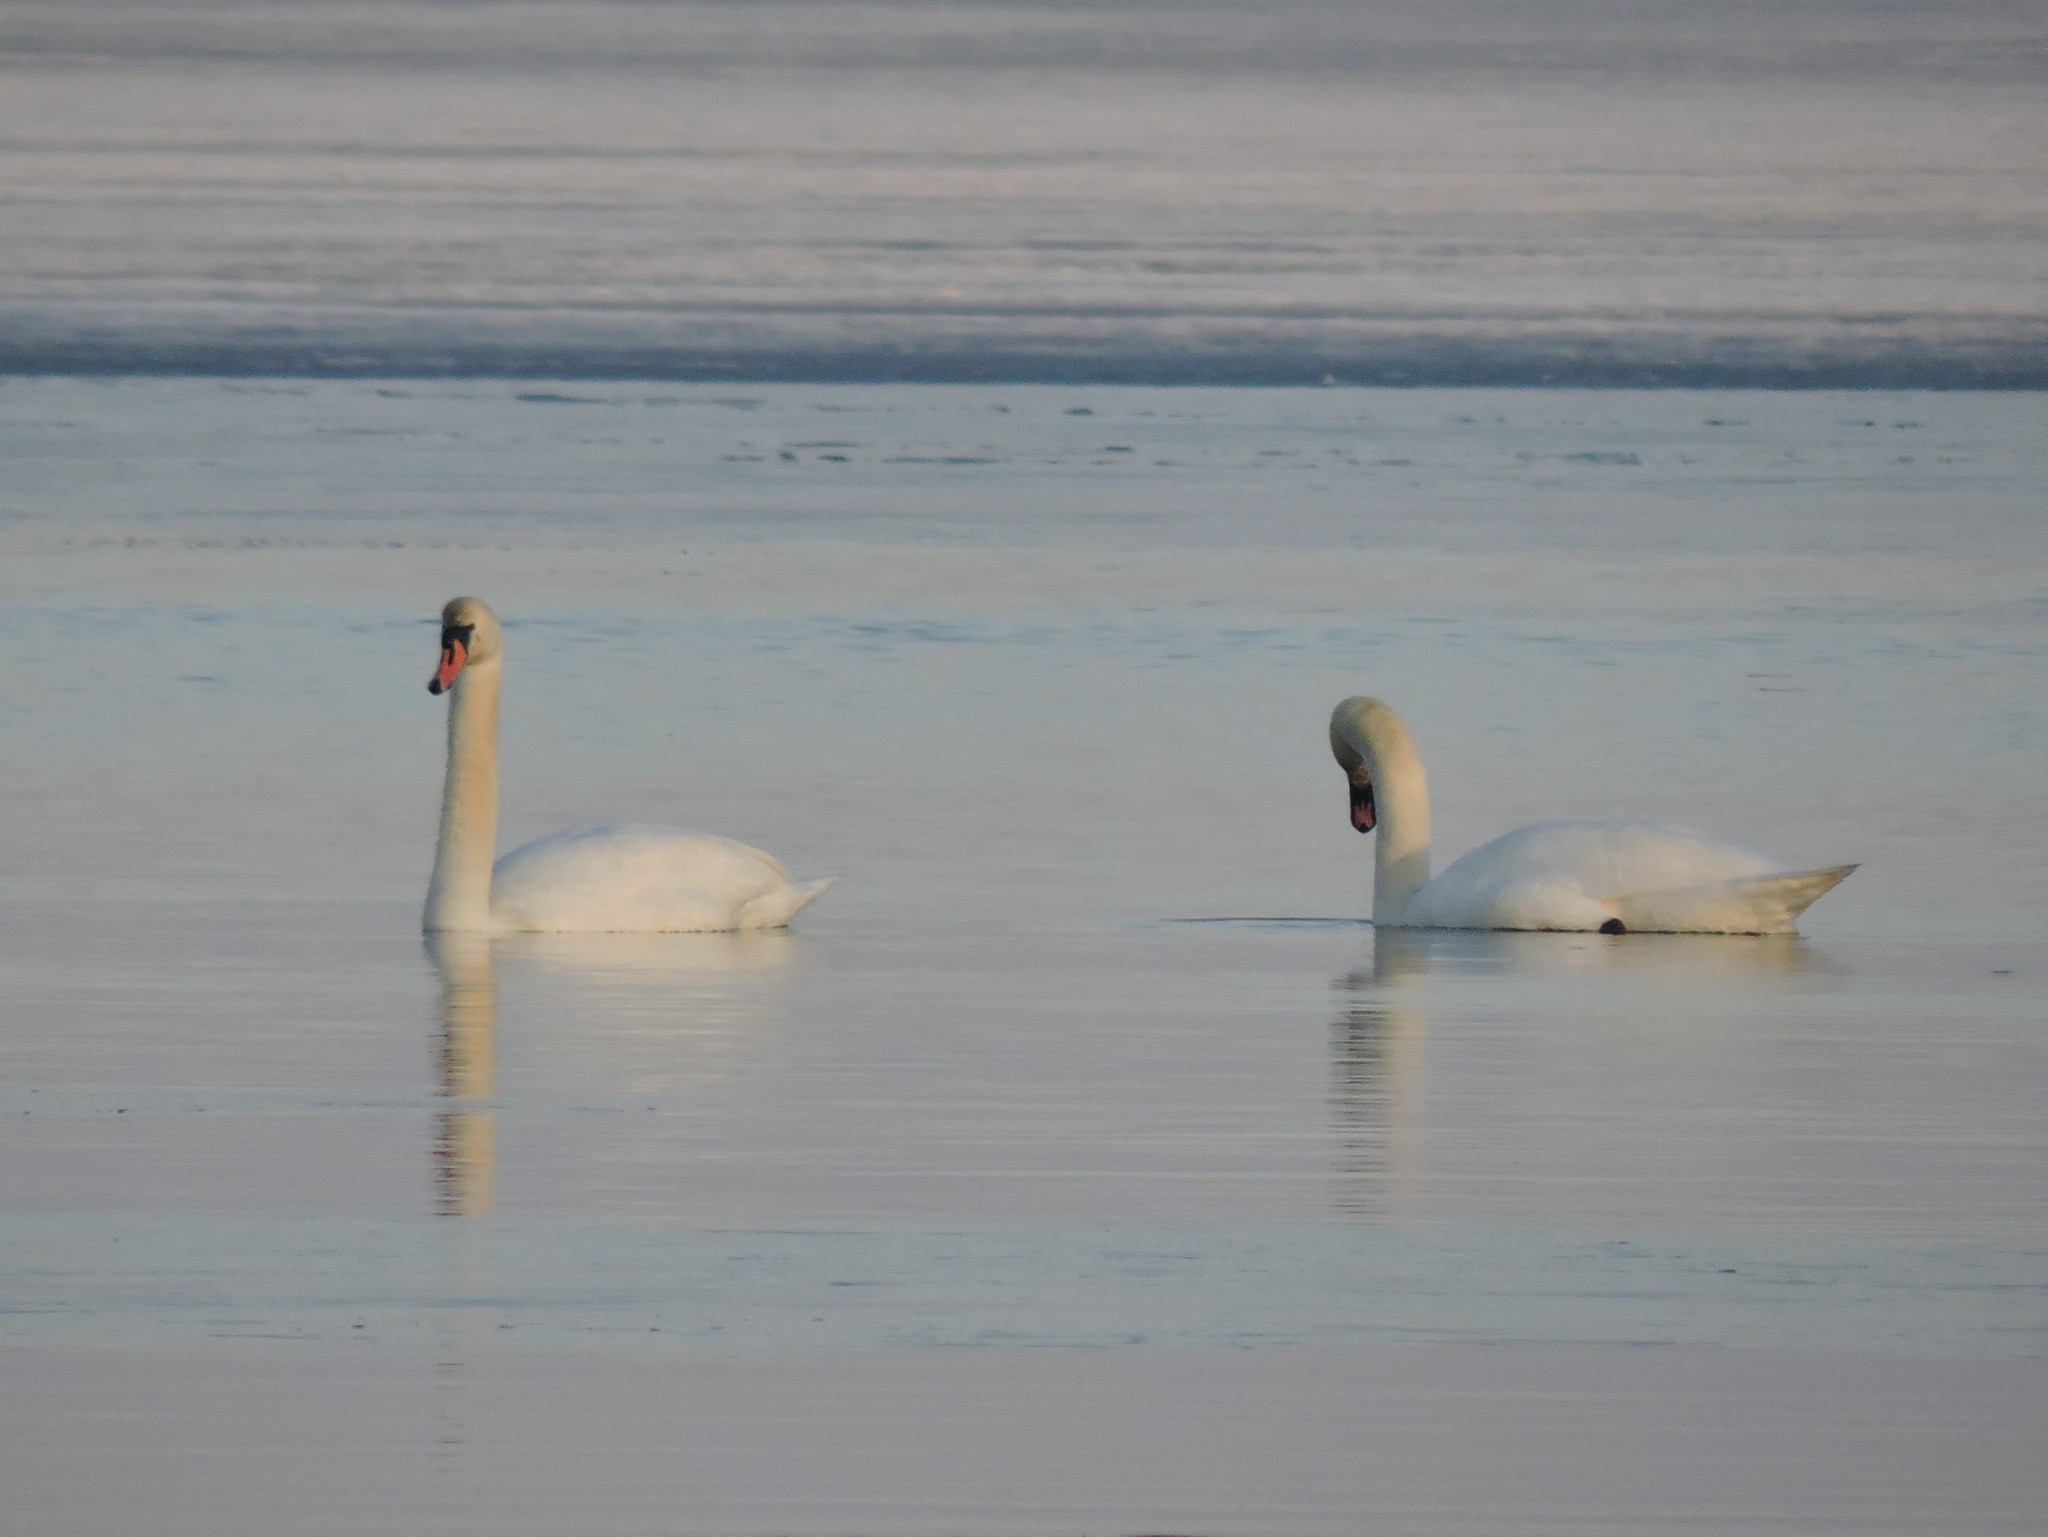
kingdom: Animalia
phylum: Chordata
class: Aves
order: Anseriformes
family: Anatidae
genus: Cygnus
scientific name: Cygnus olor
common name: Mute swan
